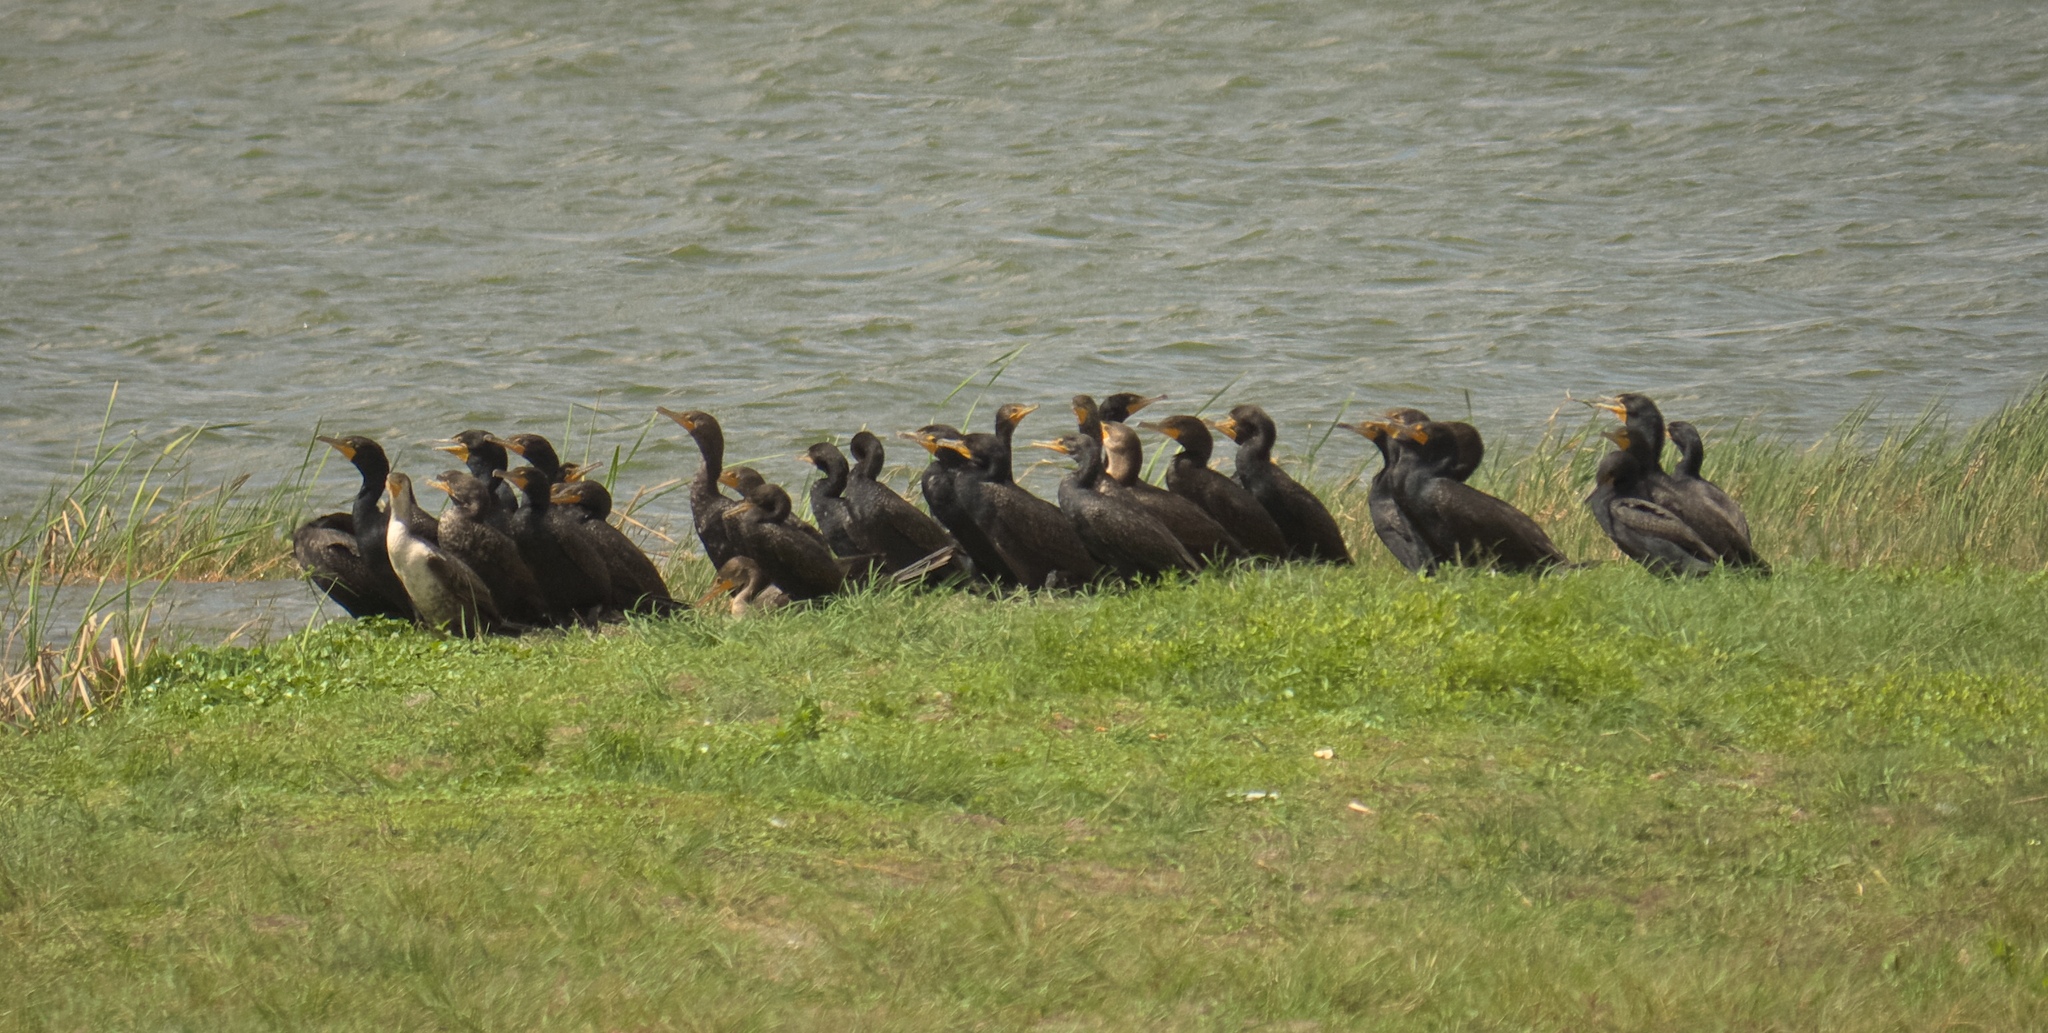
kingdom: Animalia
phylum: Chordata
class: Aves
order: Suliformes
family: Phalacrocoracidae
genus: Phalacrocorax
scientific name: Phalacrocorax auritus
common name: Double-crested cormorant
